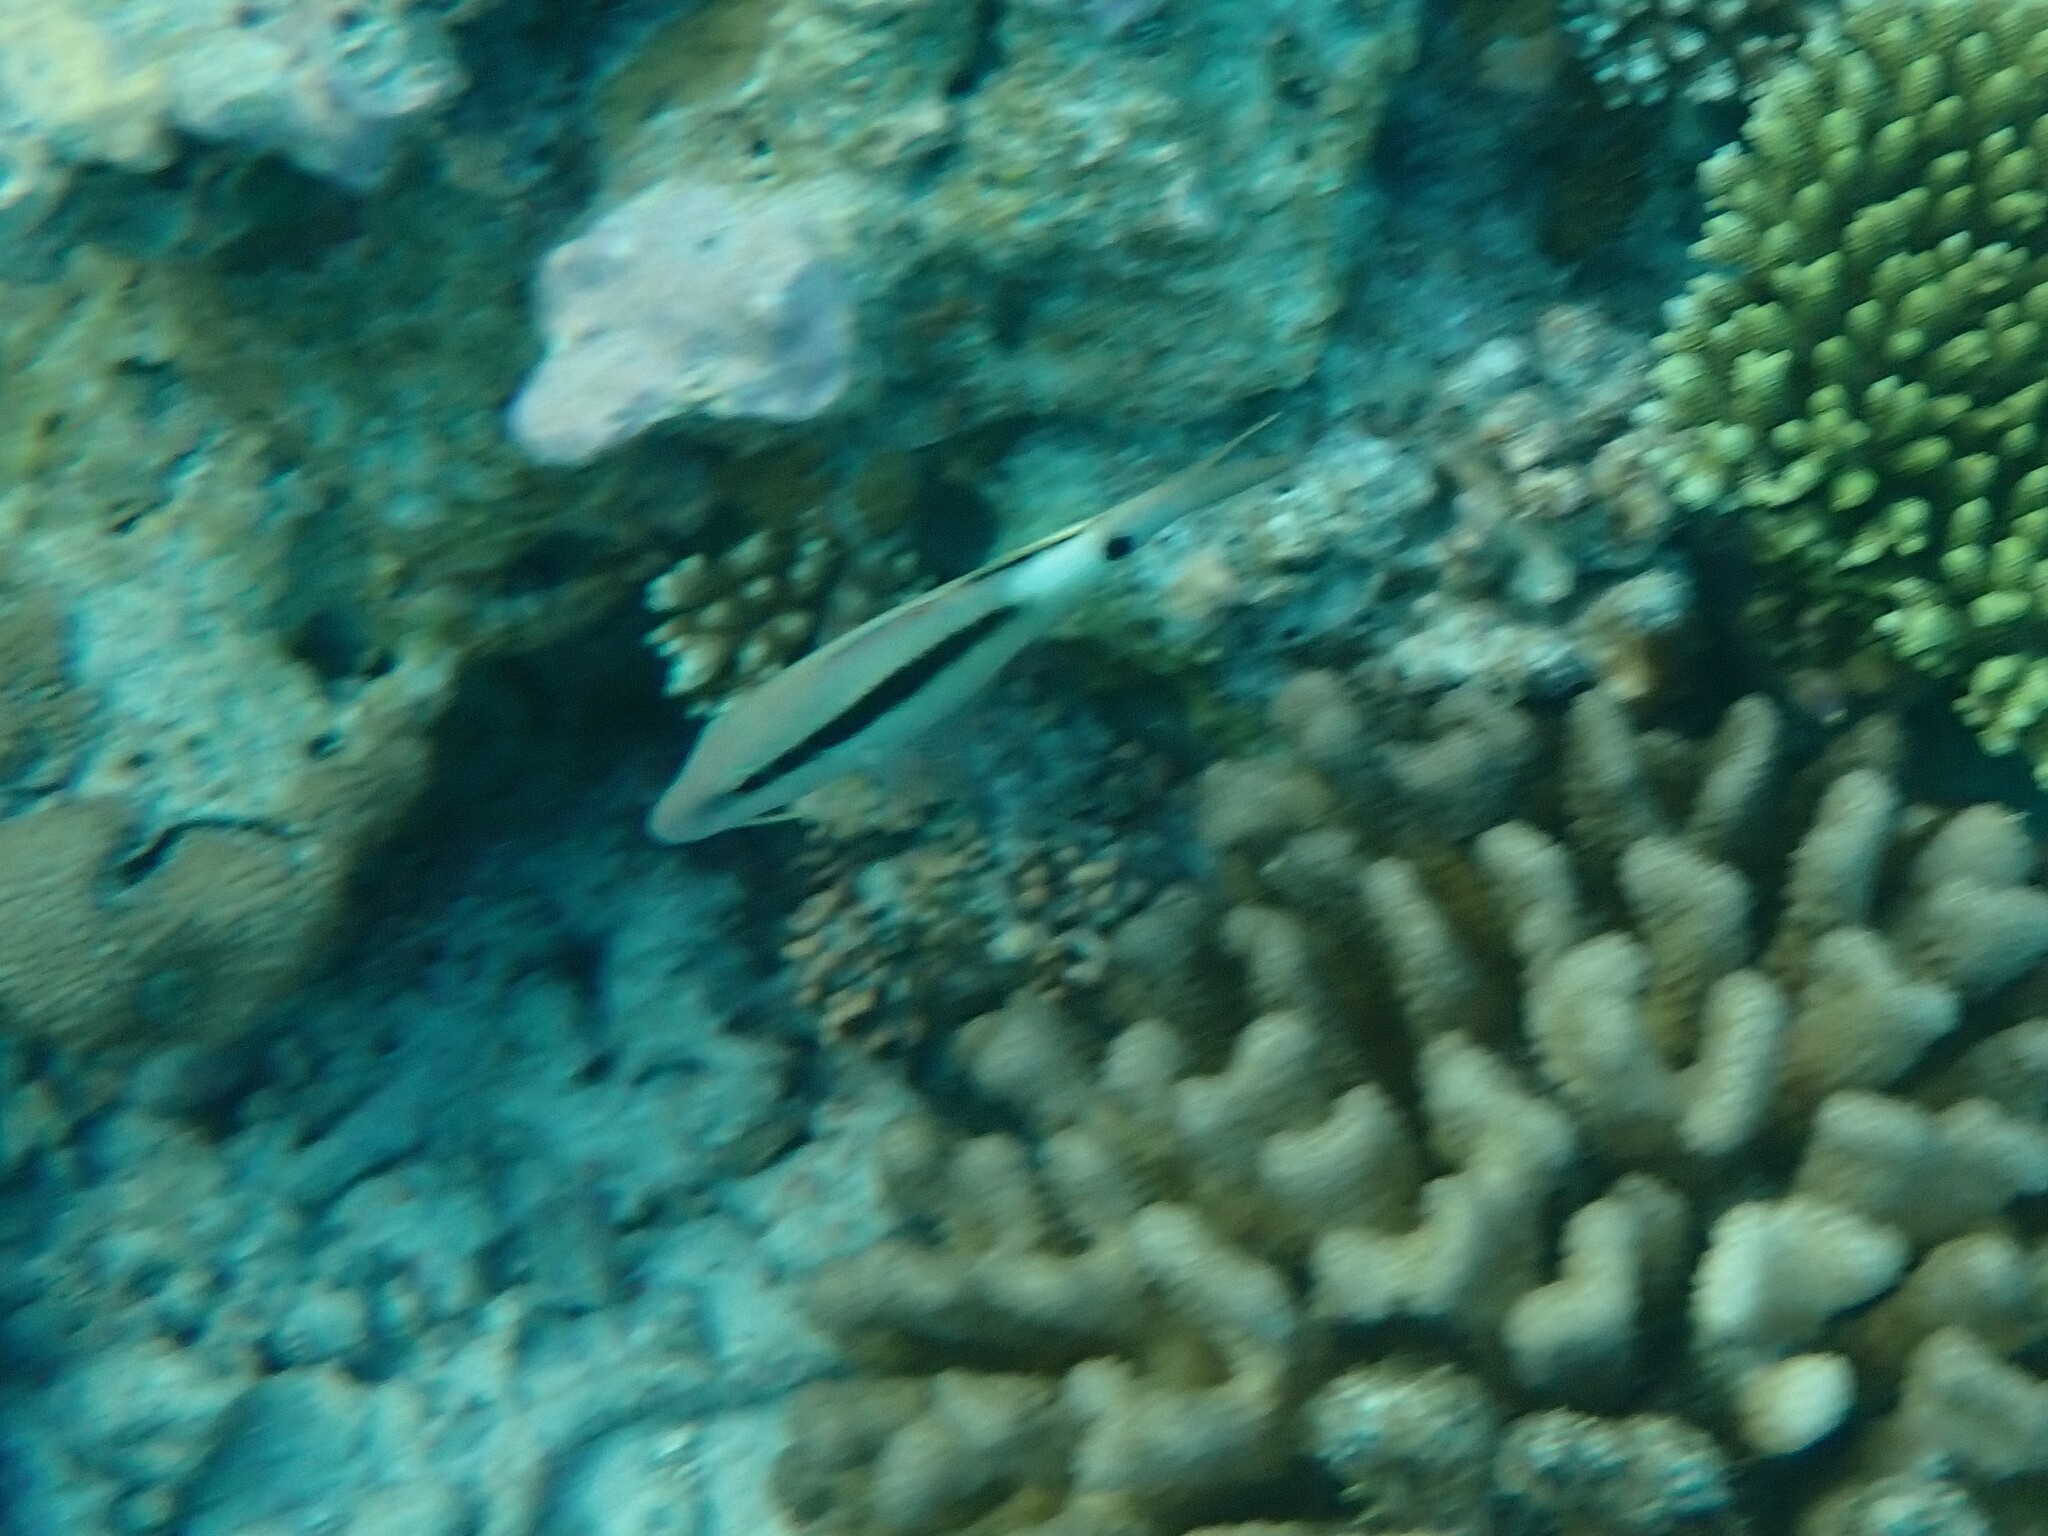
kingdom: Animalia
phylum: Chordata
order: Perciformes
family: Mullidae
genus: Parupeneus
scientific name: Parupeneus macronemus
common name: Long-barbel goatfish
